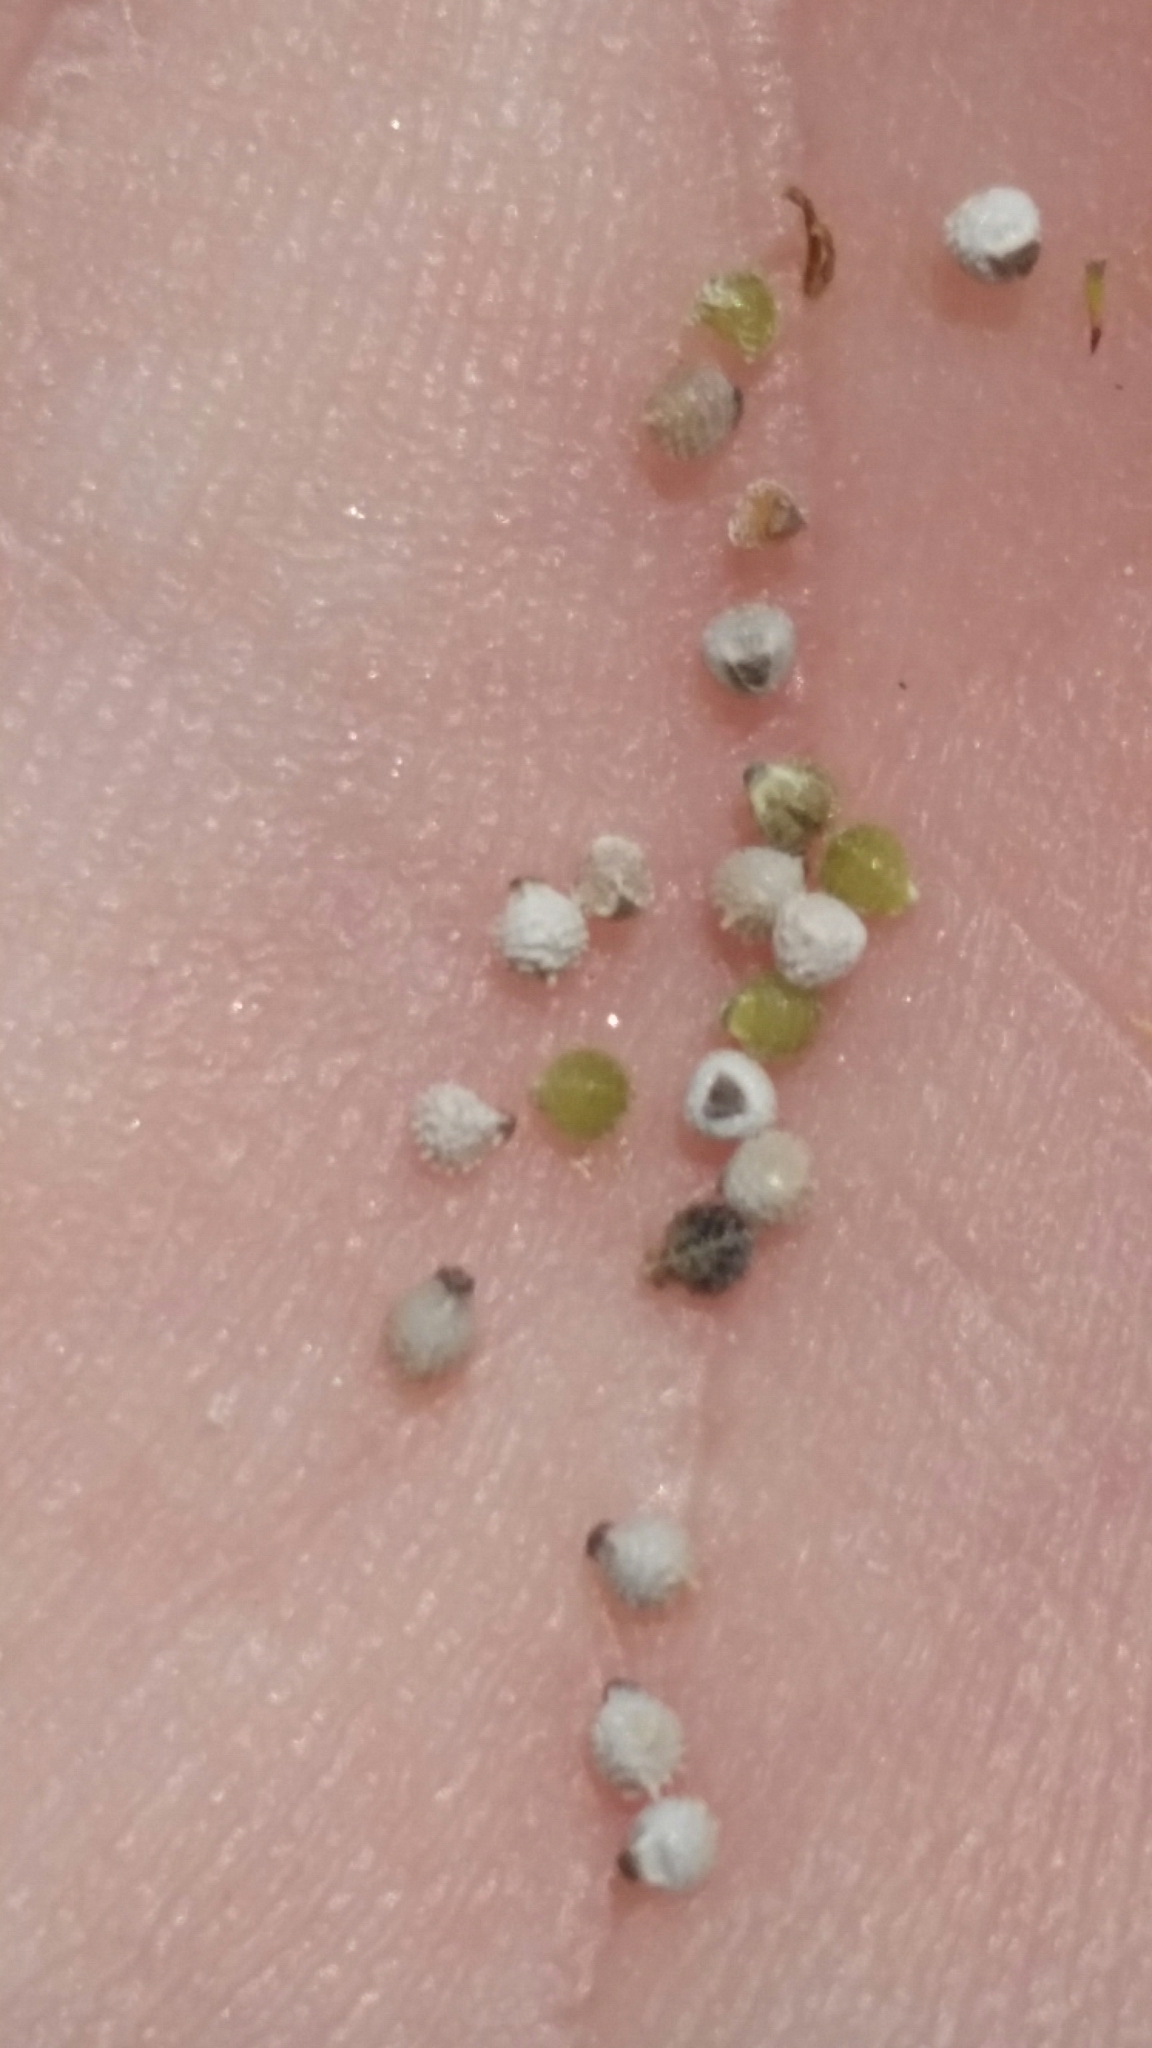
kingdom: Plantae
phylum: Tracheophyta
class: Liliopsida
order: Poales
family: Cyperaceae
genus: Scleria
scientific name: Scleria verticillata
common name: Low nutrush
